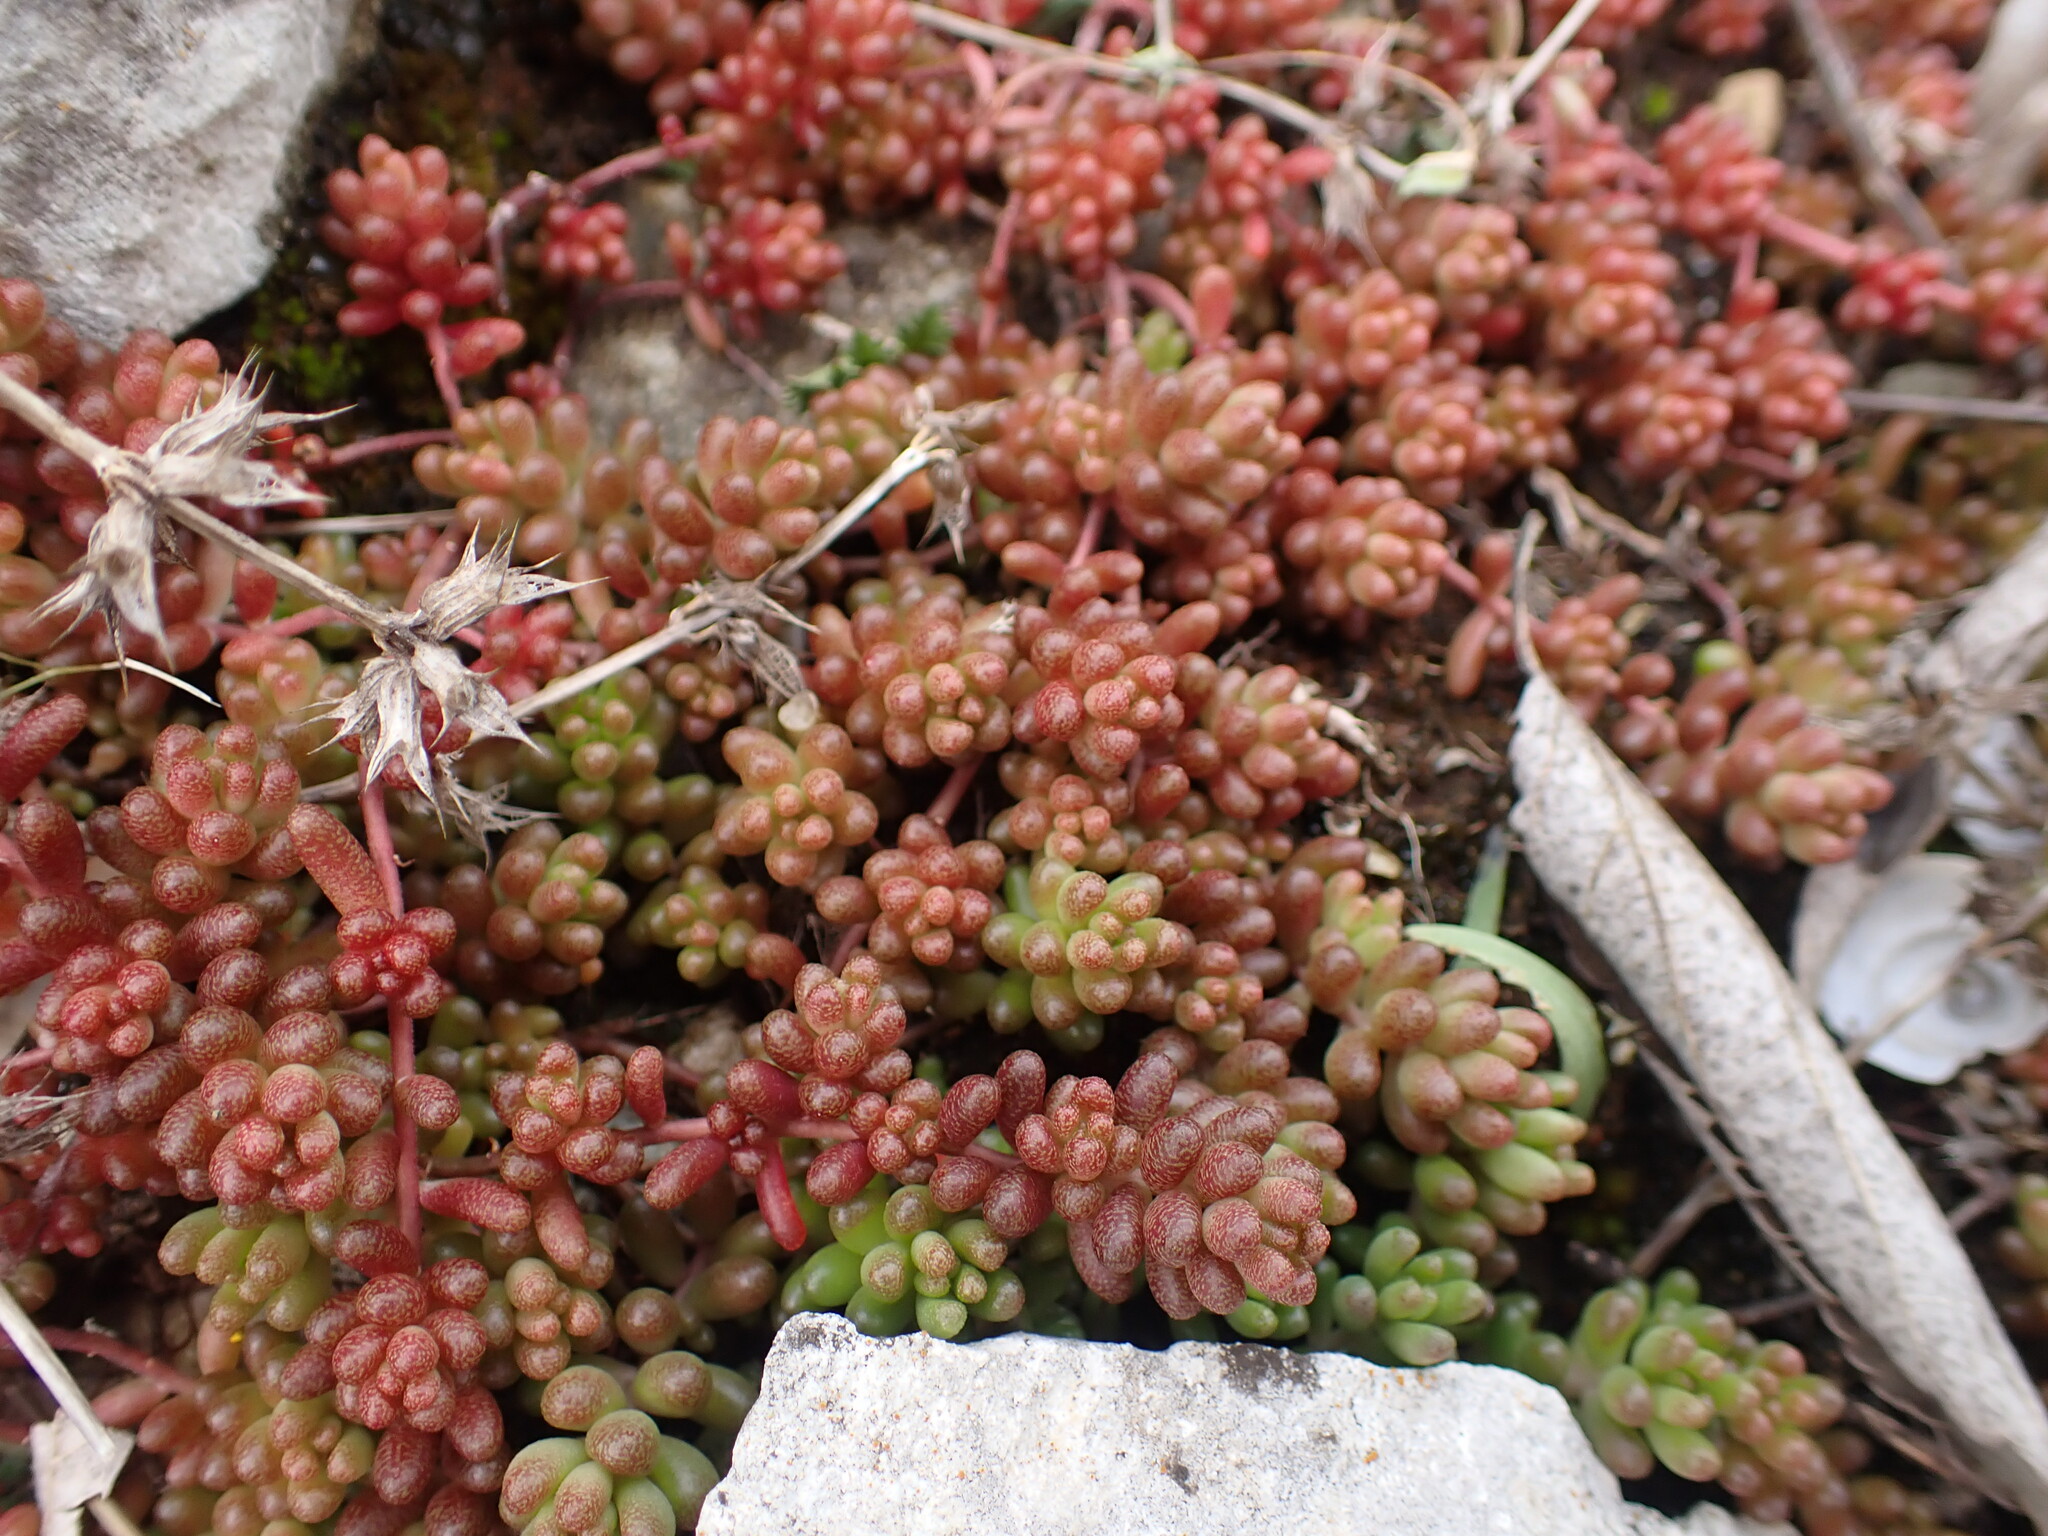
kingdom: Plantae
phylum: Tracheophyta
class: Magnoliopsida
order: Saxifragales
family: Crassulaceae
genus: Sedum
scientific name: Sedum album
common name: White stonecrop
